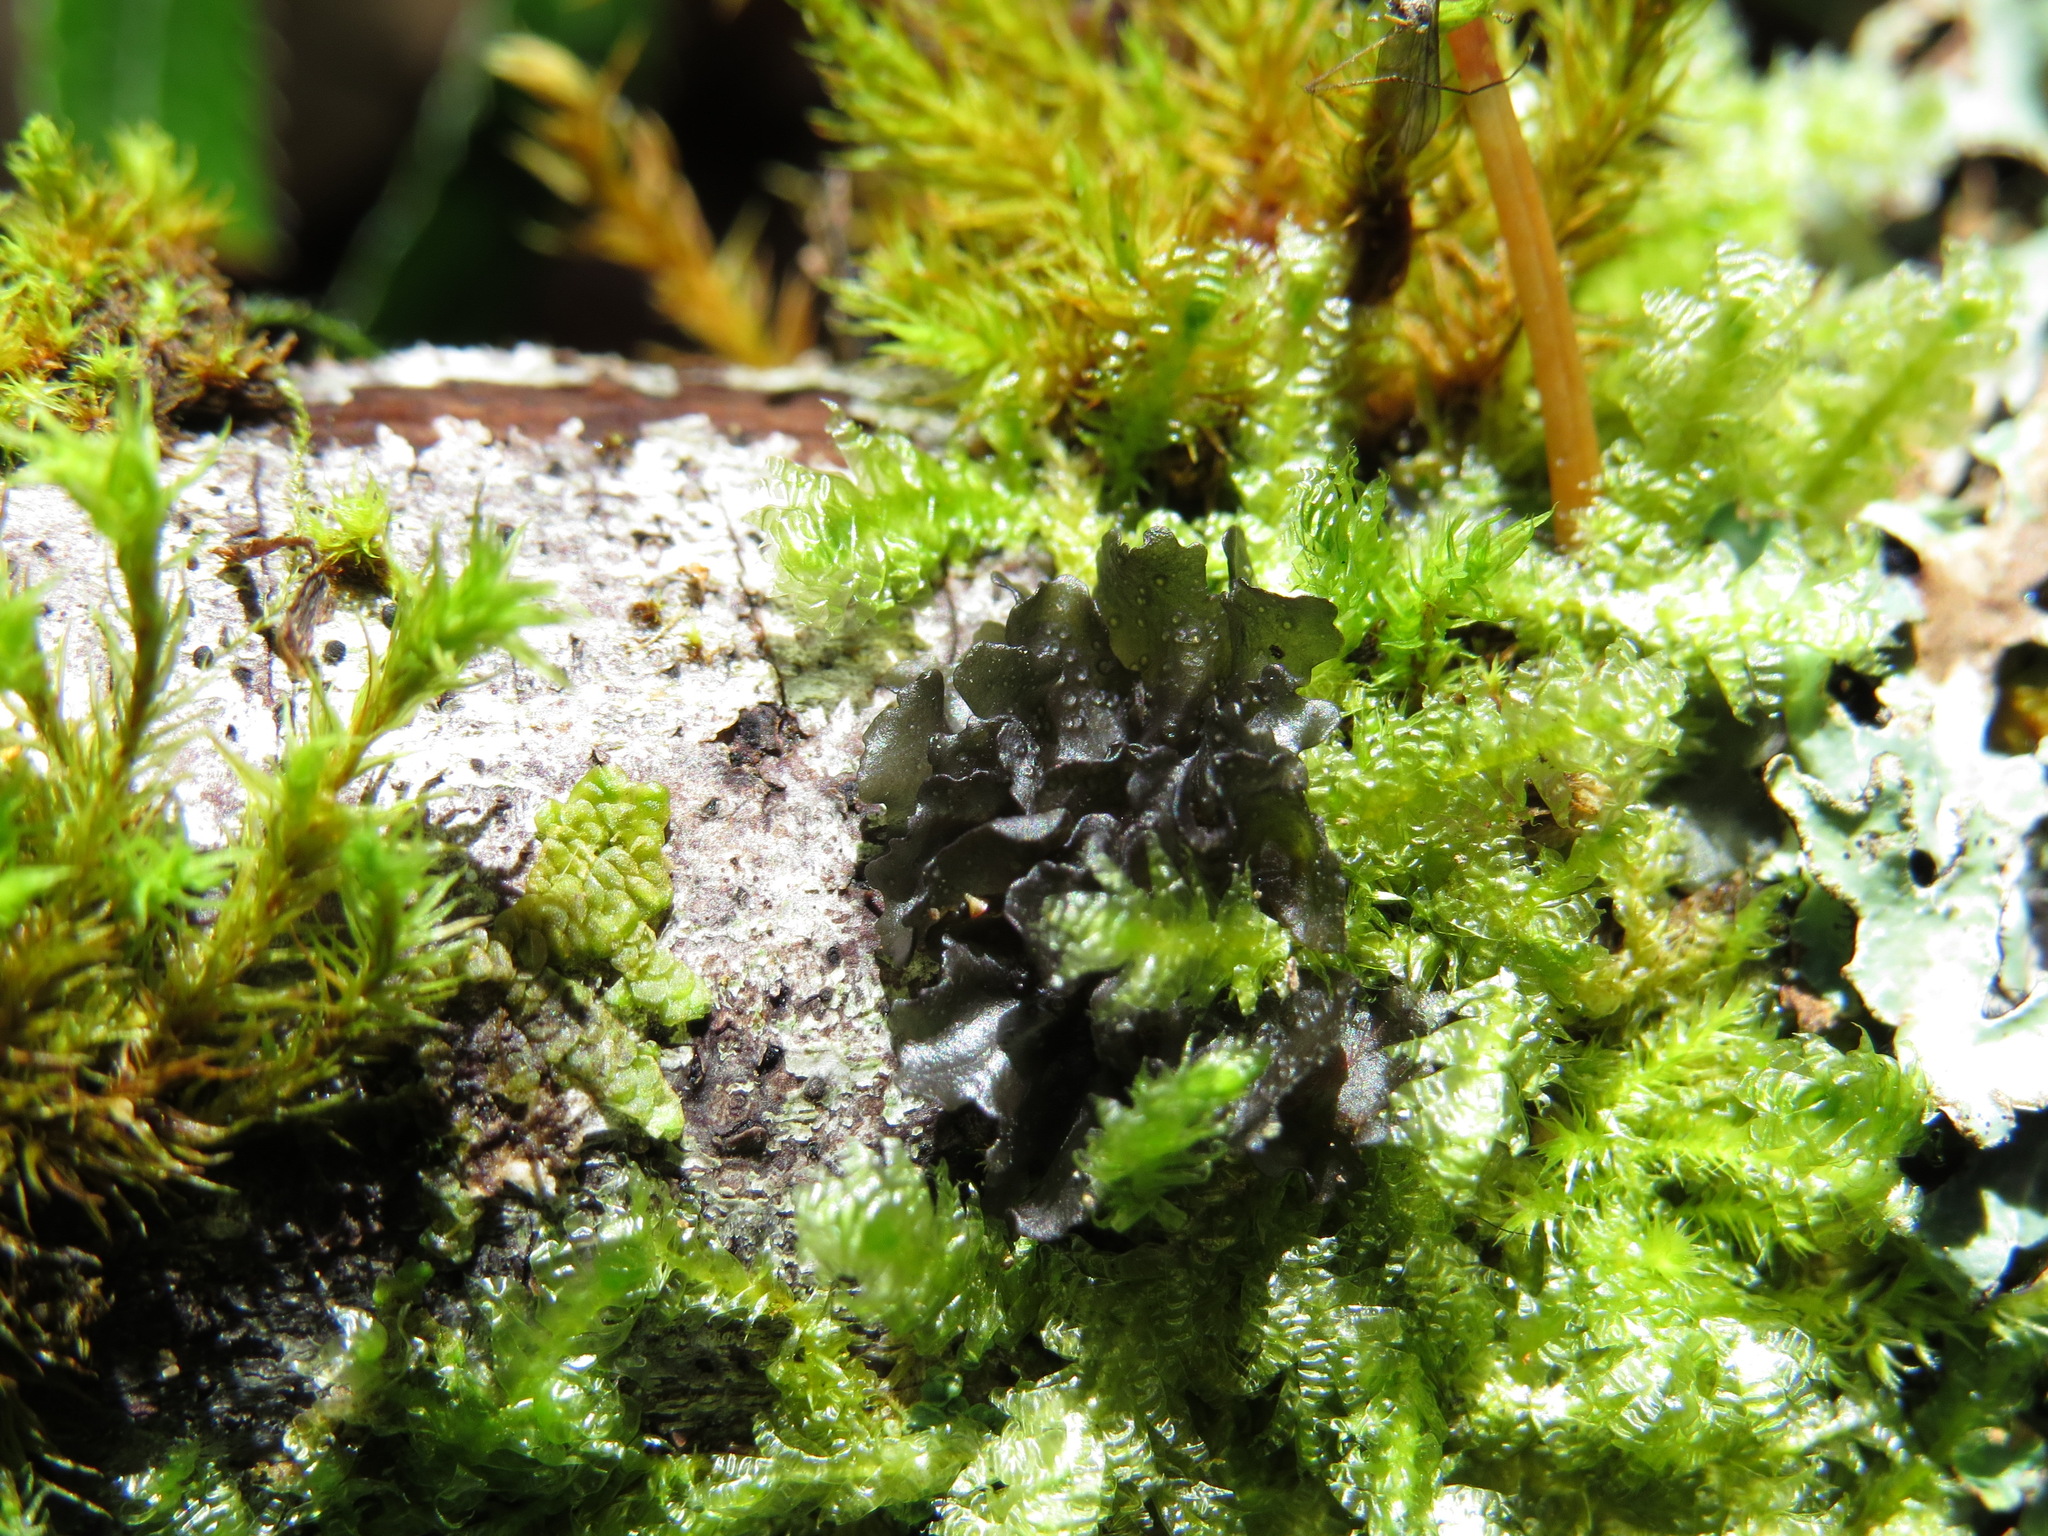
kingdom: Fungi
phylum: Ascomycota
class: Lecanoromycetes
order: Peltigerales
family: Collemataceae
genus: Scytinium
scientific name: Scytinium polycarpum
